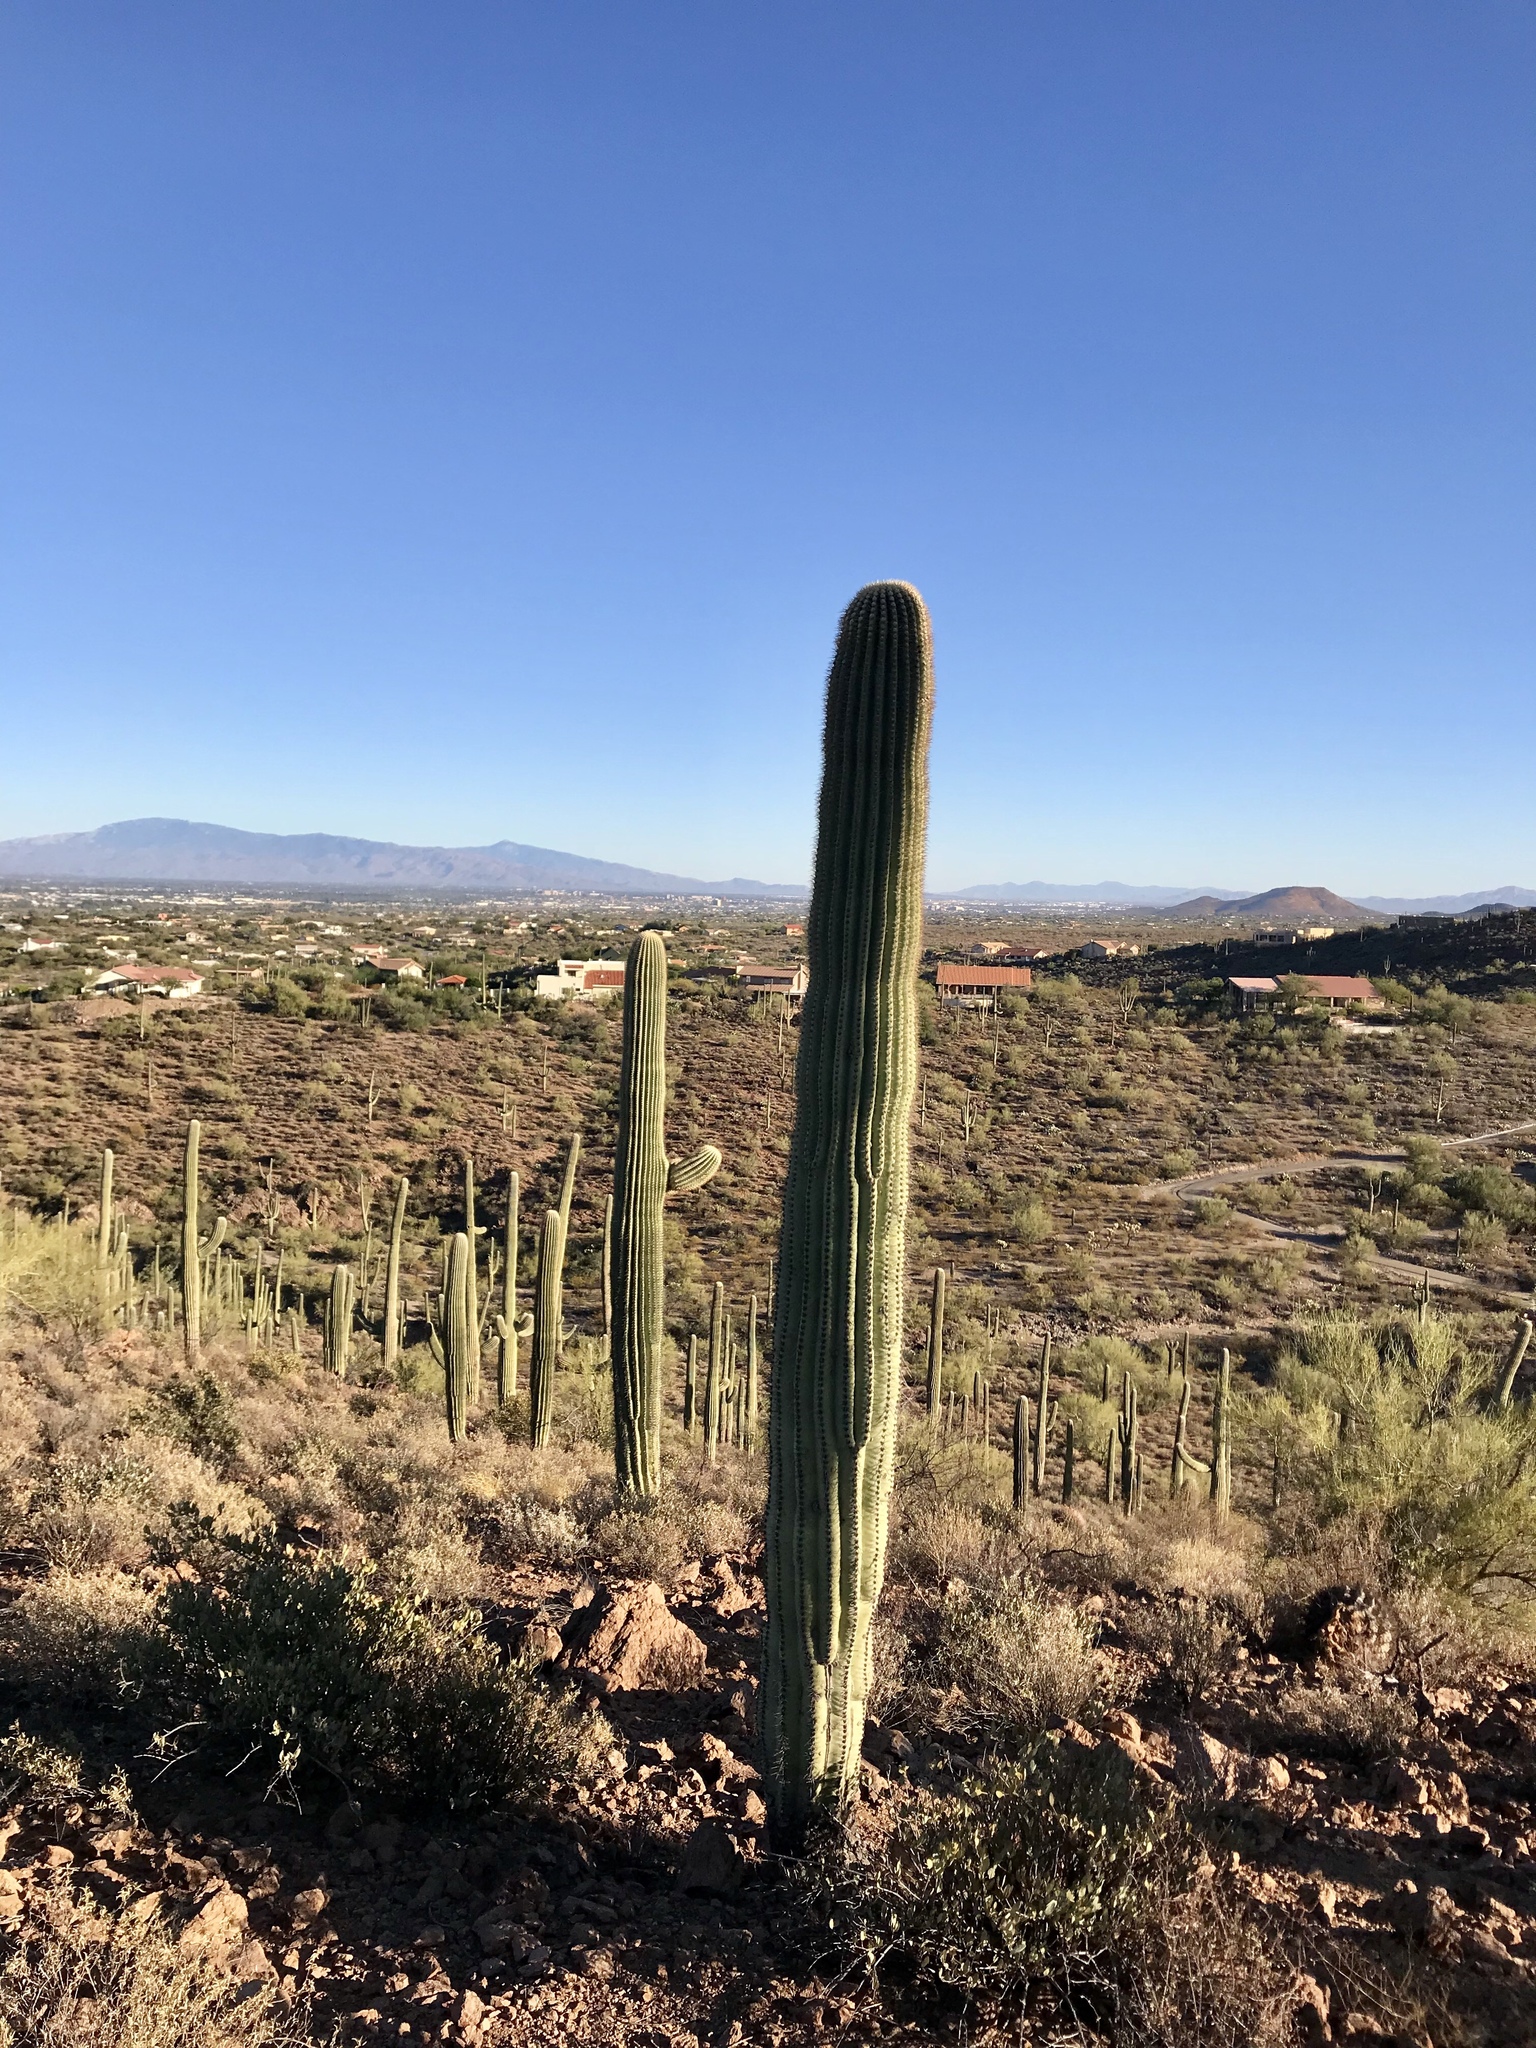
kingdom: Plantae
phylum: Tracheophyta
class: Magnoliopsida
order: Caryophyllales
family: Cactaceae
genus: Carnegiea
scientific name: Carnegiea gigantea
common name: Saguaro
